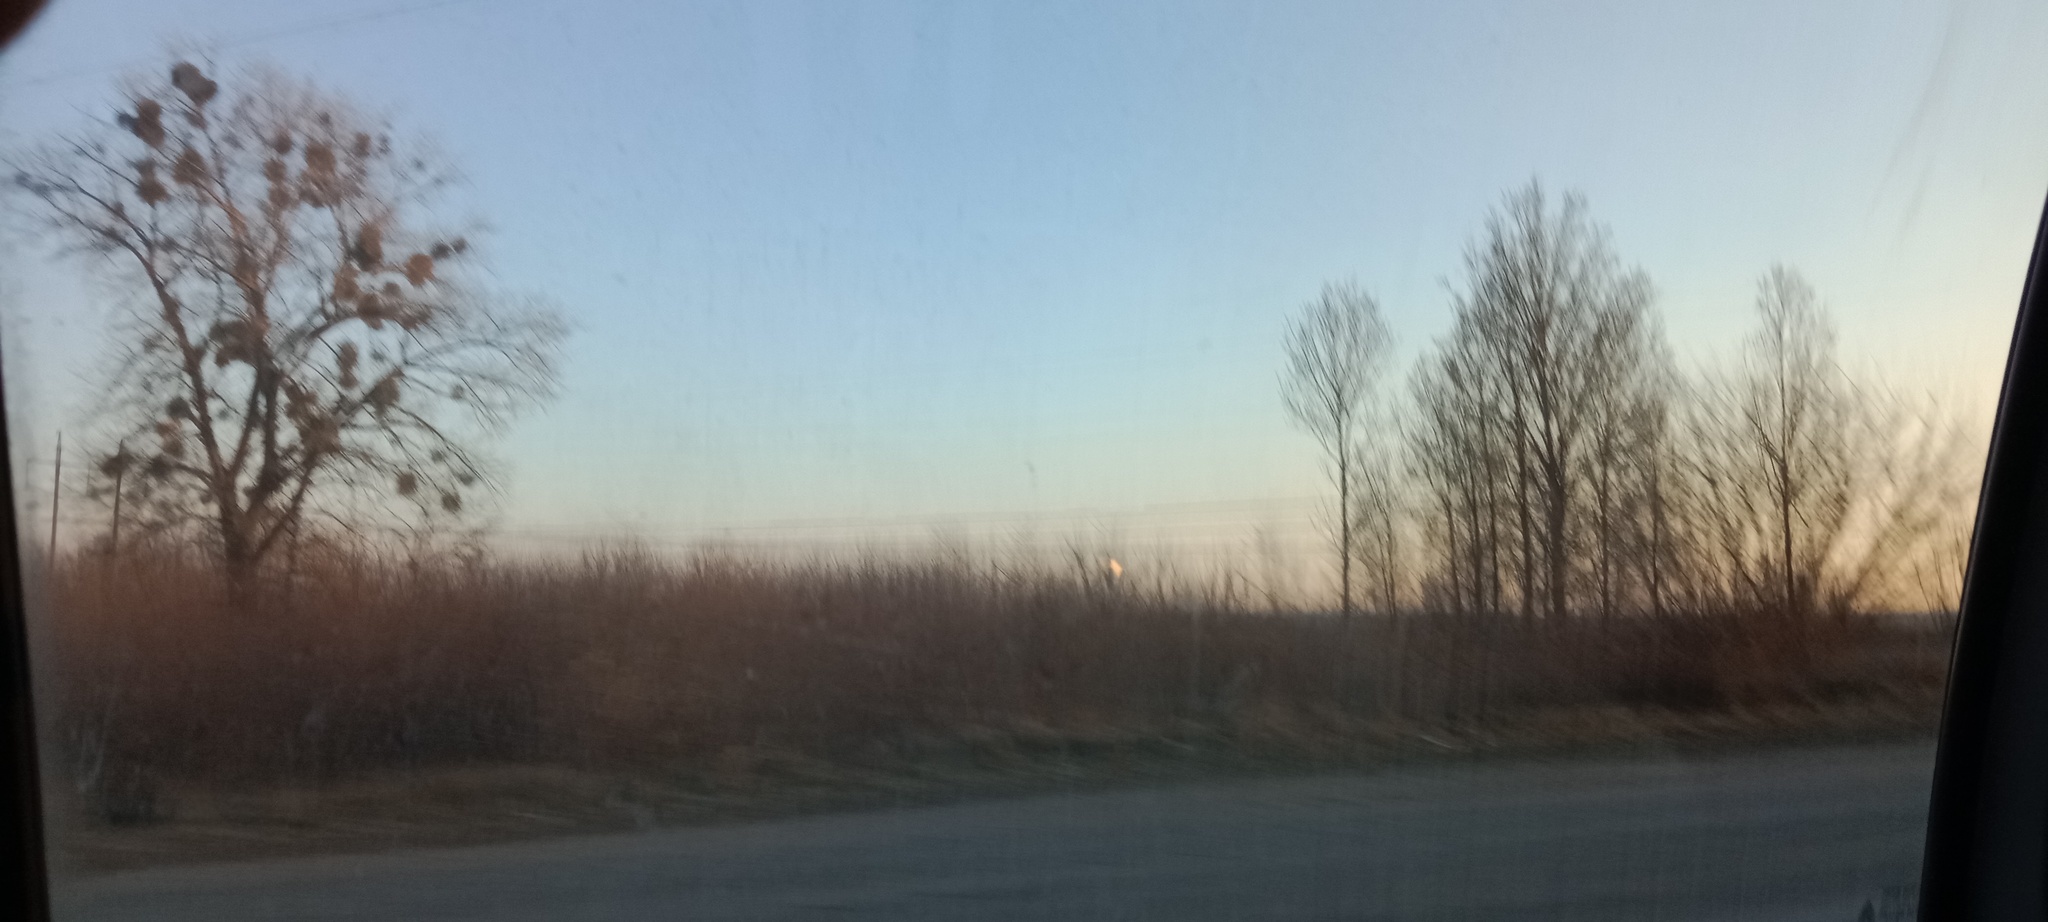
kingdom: Plantae
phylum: Tracheophyta
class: Magnoliopsida
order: Santalales
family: Viscaceae
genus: Viscum
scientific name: Viscum album
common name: Mistletoe
